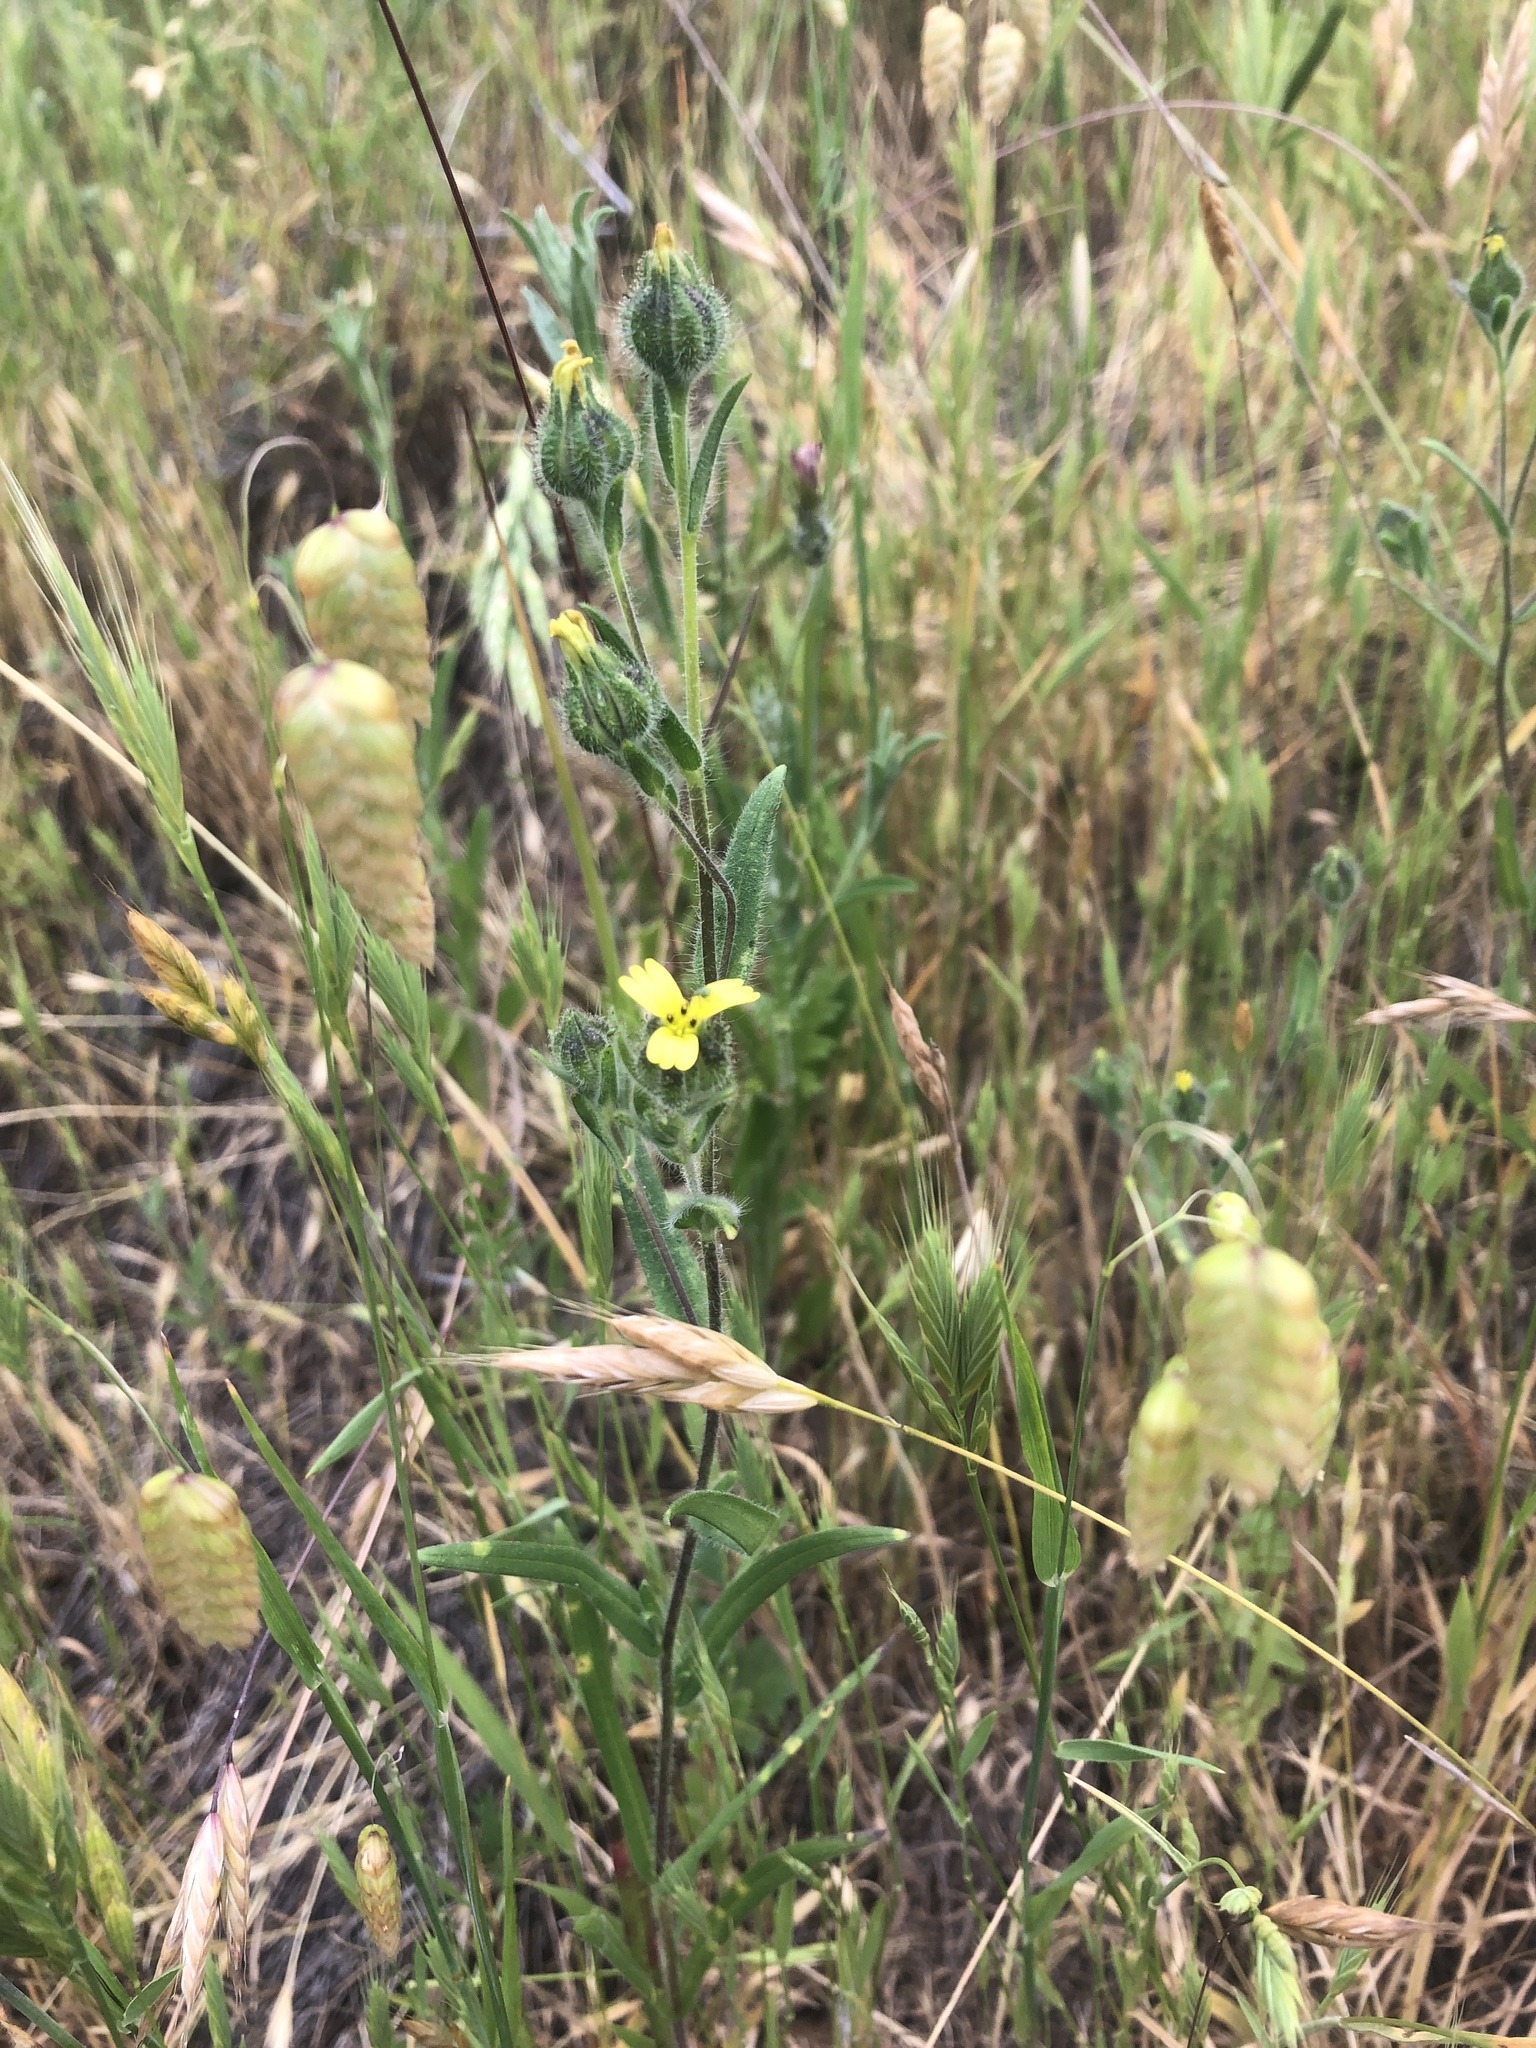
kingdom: Plantae
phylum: Tracheophyta
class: Magnoliopsida
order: Asterales
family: Asteraceae
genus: Madia
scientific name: Madia gracilis
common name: Grassy tarweed
